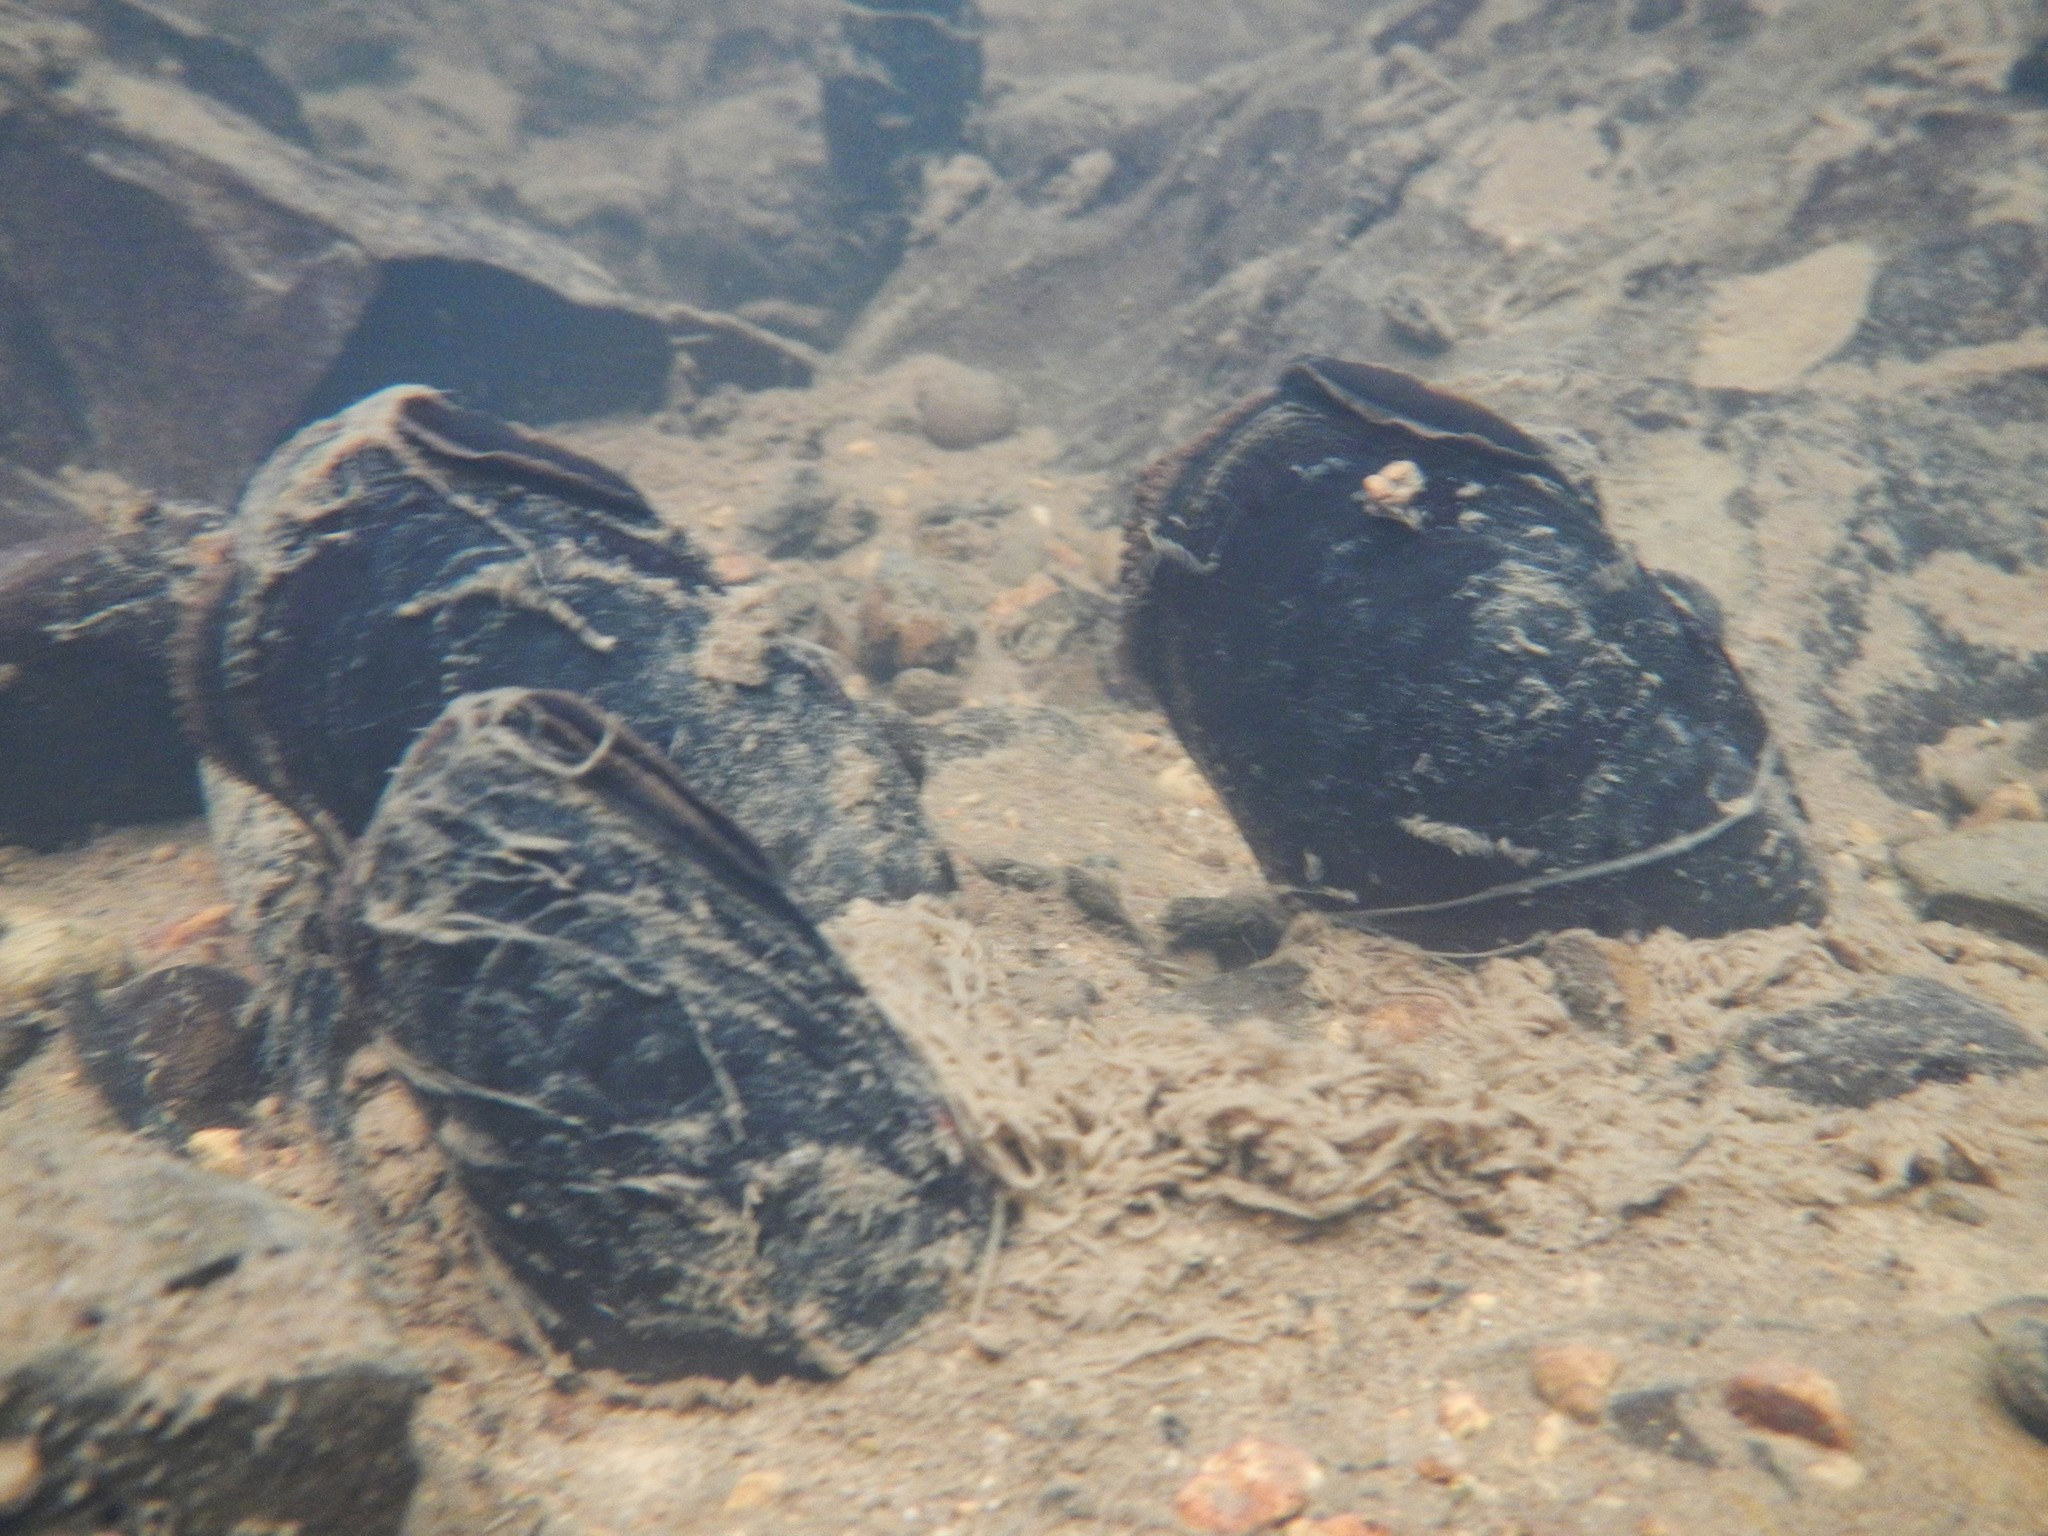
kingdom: Animalia
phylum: Mollusca
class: Bivalvia
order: Unionida
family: Margaritiferidae
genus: Margaritifera
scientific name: Margaritifera falcata
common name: Western pearlshell
